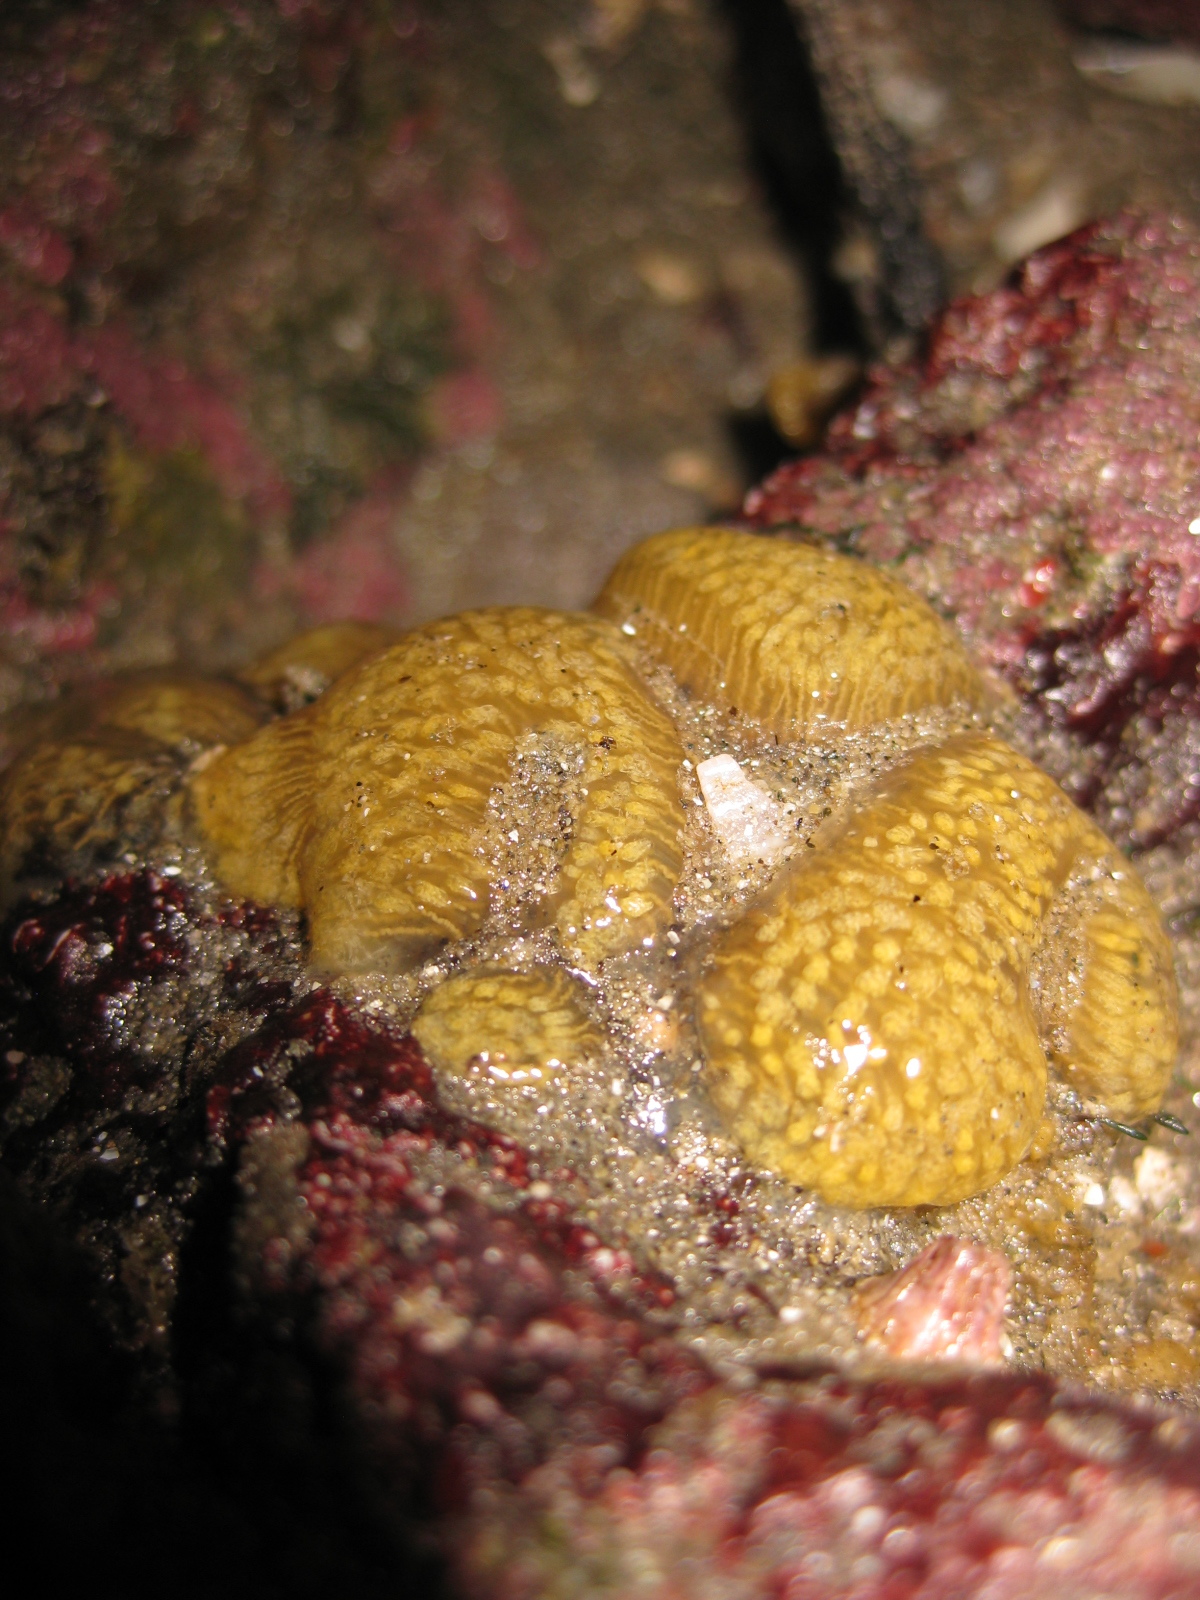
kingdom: Animalia
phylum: Chordata
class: Ascidiacea
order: Aplousobranchia
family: Pseudodistomidae
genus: Pseudodistoma
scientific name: Pseudodistoma opacum
